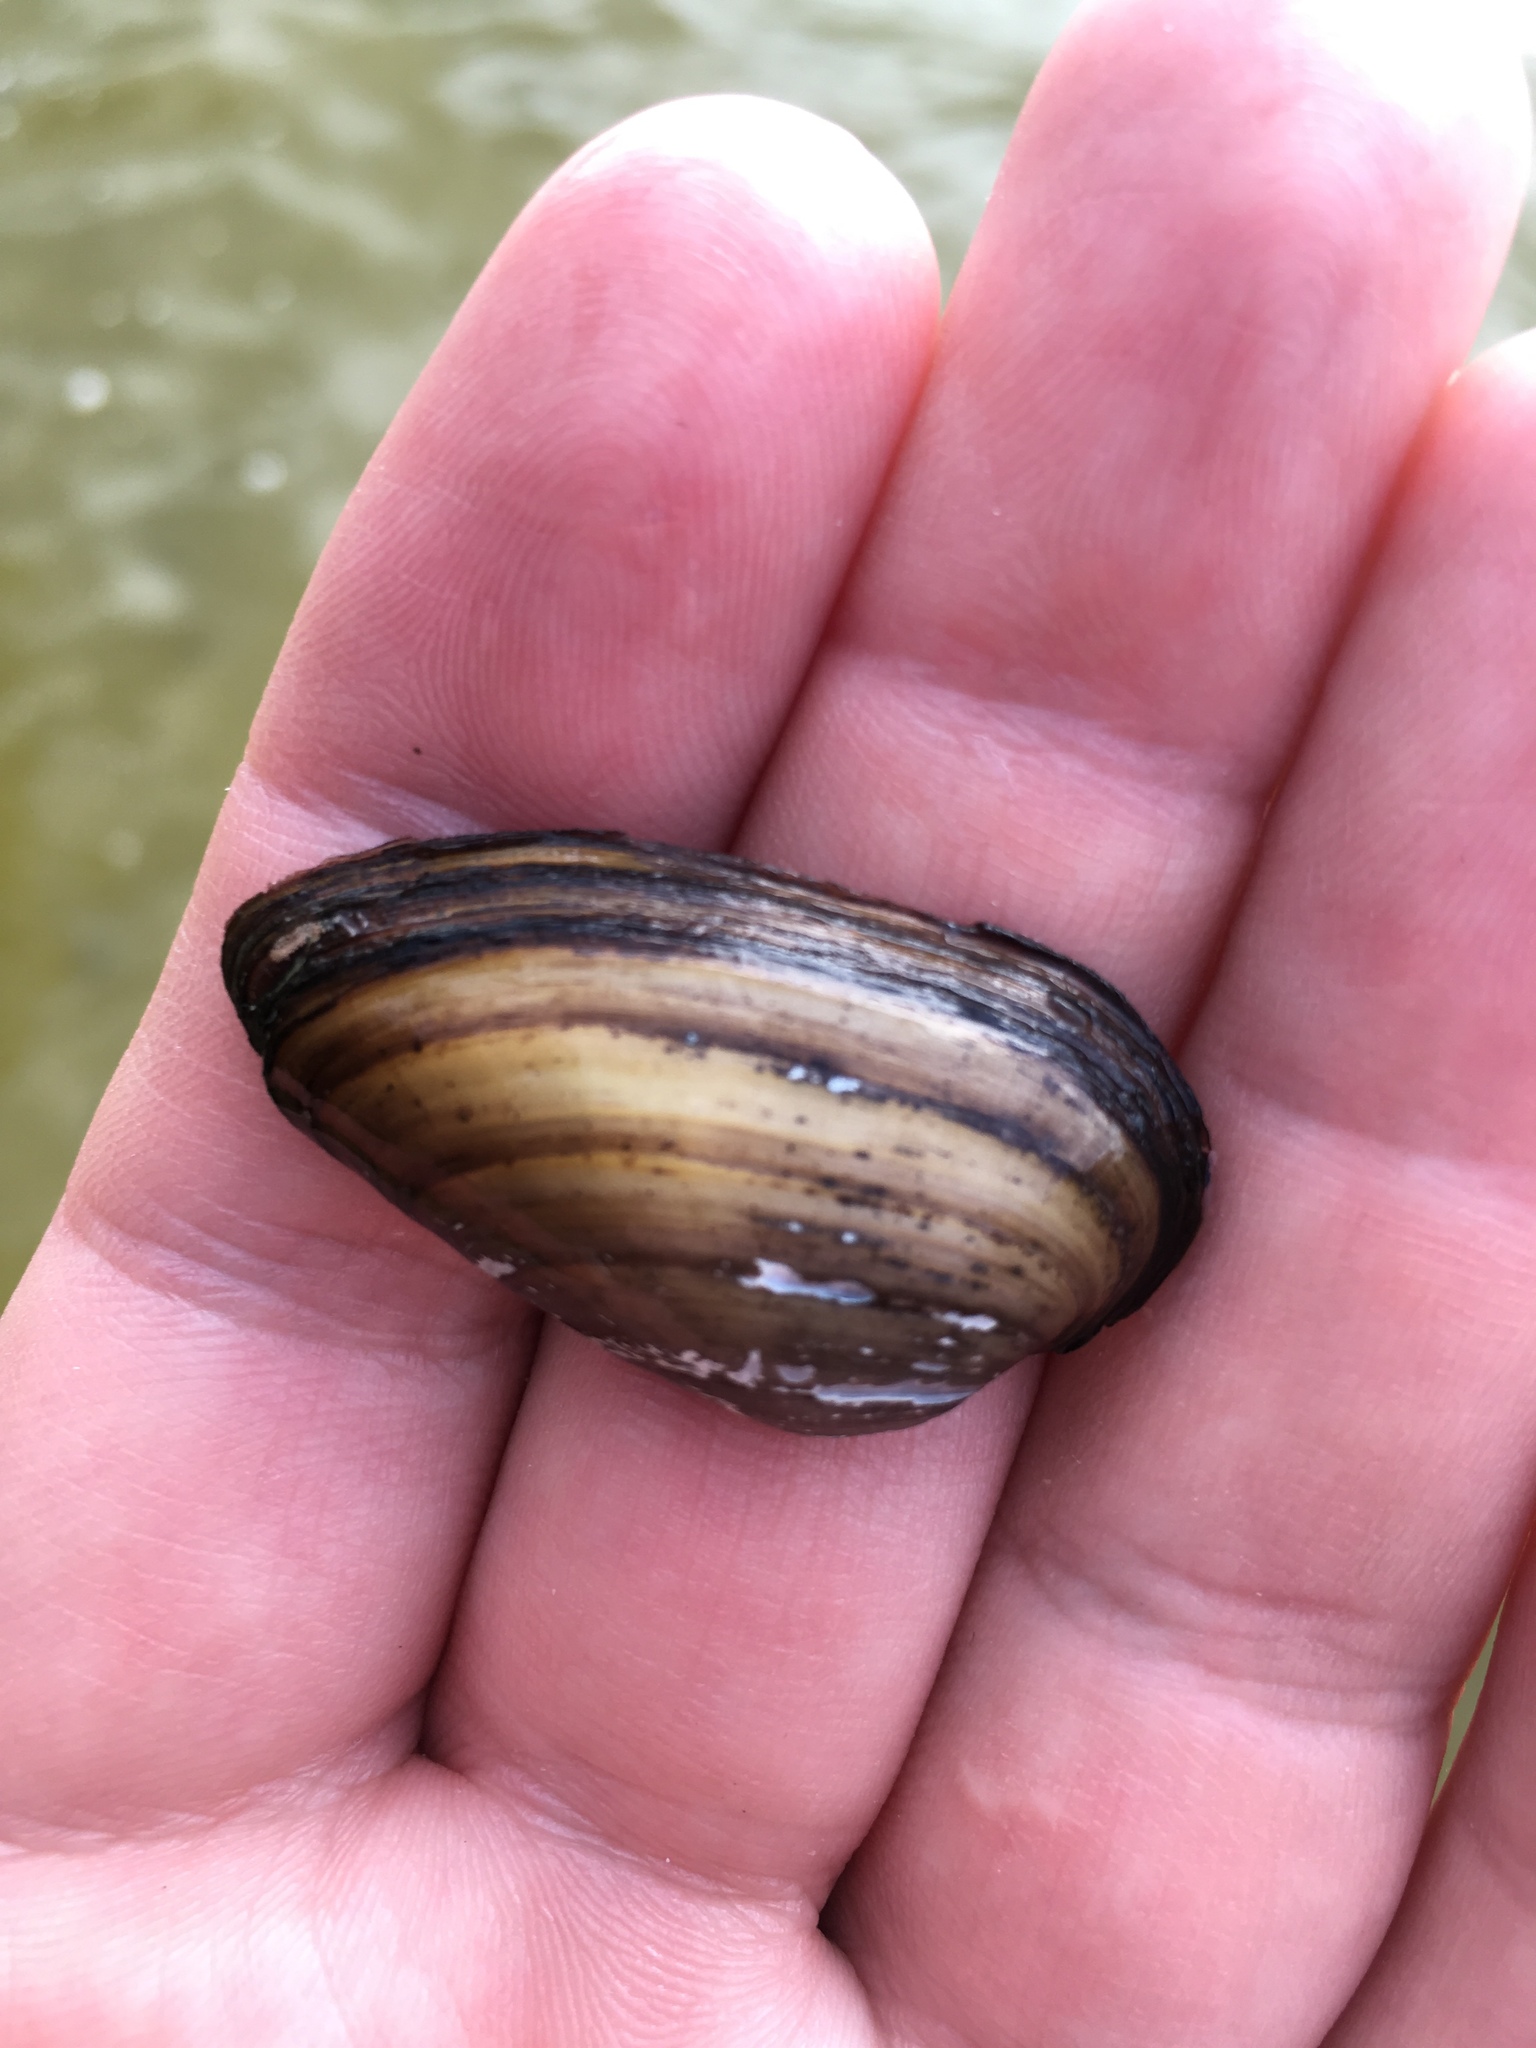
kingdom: Animalia
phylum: Mollusca
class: Bivalvia
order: Unionida
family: Unionidae
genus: Unio
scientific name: Unio tumidus
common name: Swollen river mussel
